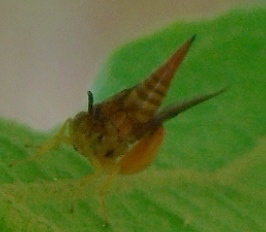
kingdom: Animalia
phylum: Arthropoda
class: Insecta
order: Hymenoptera
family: Chalcididae
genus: Conura
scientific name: Conura
